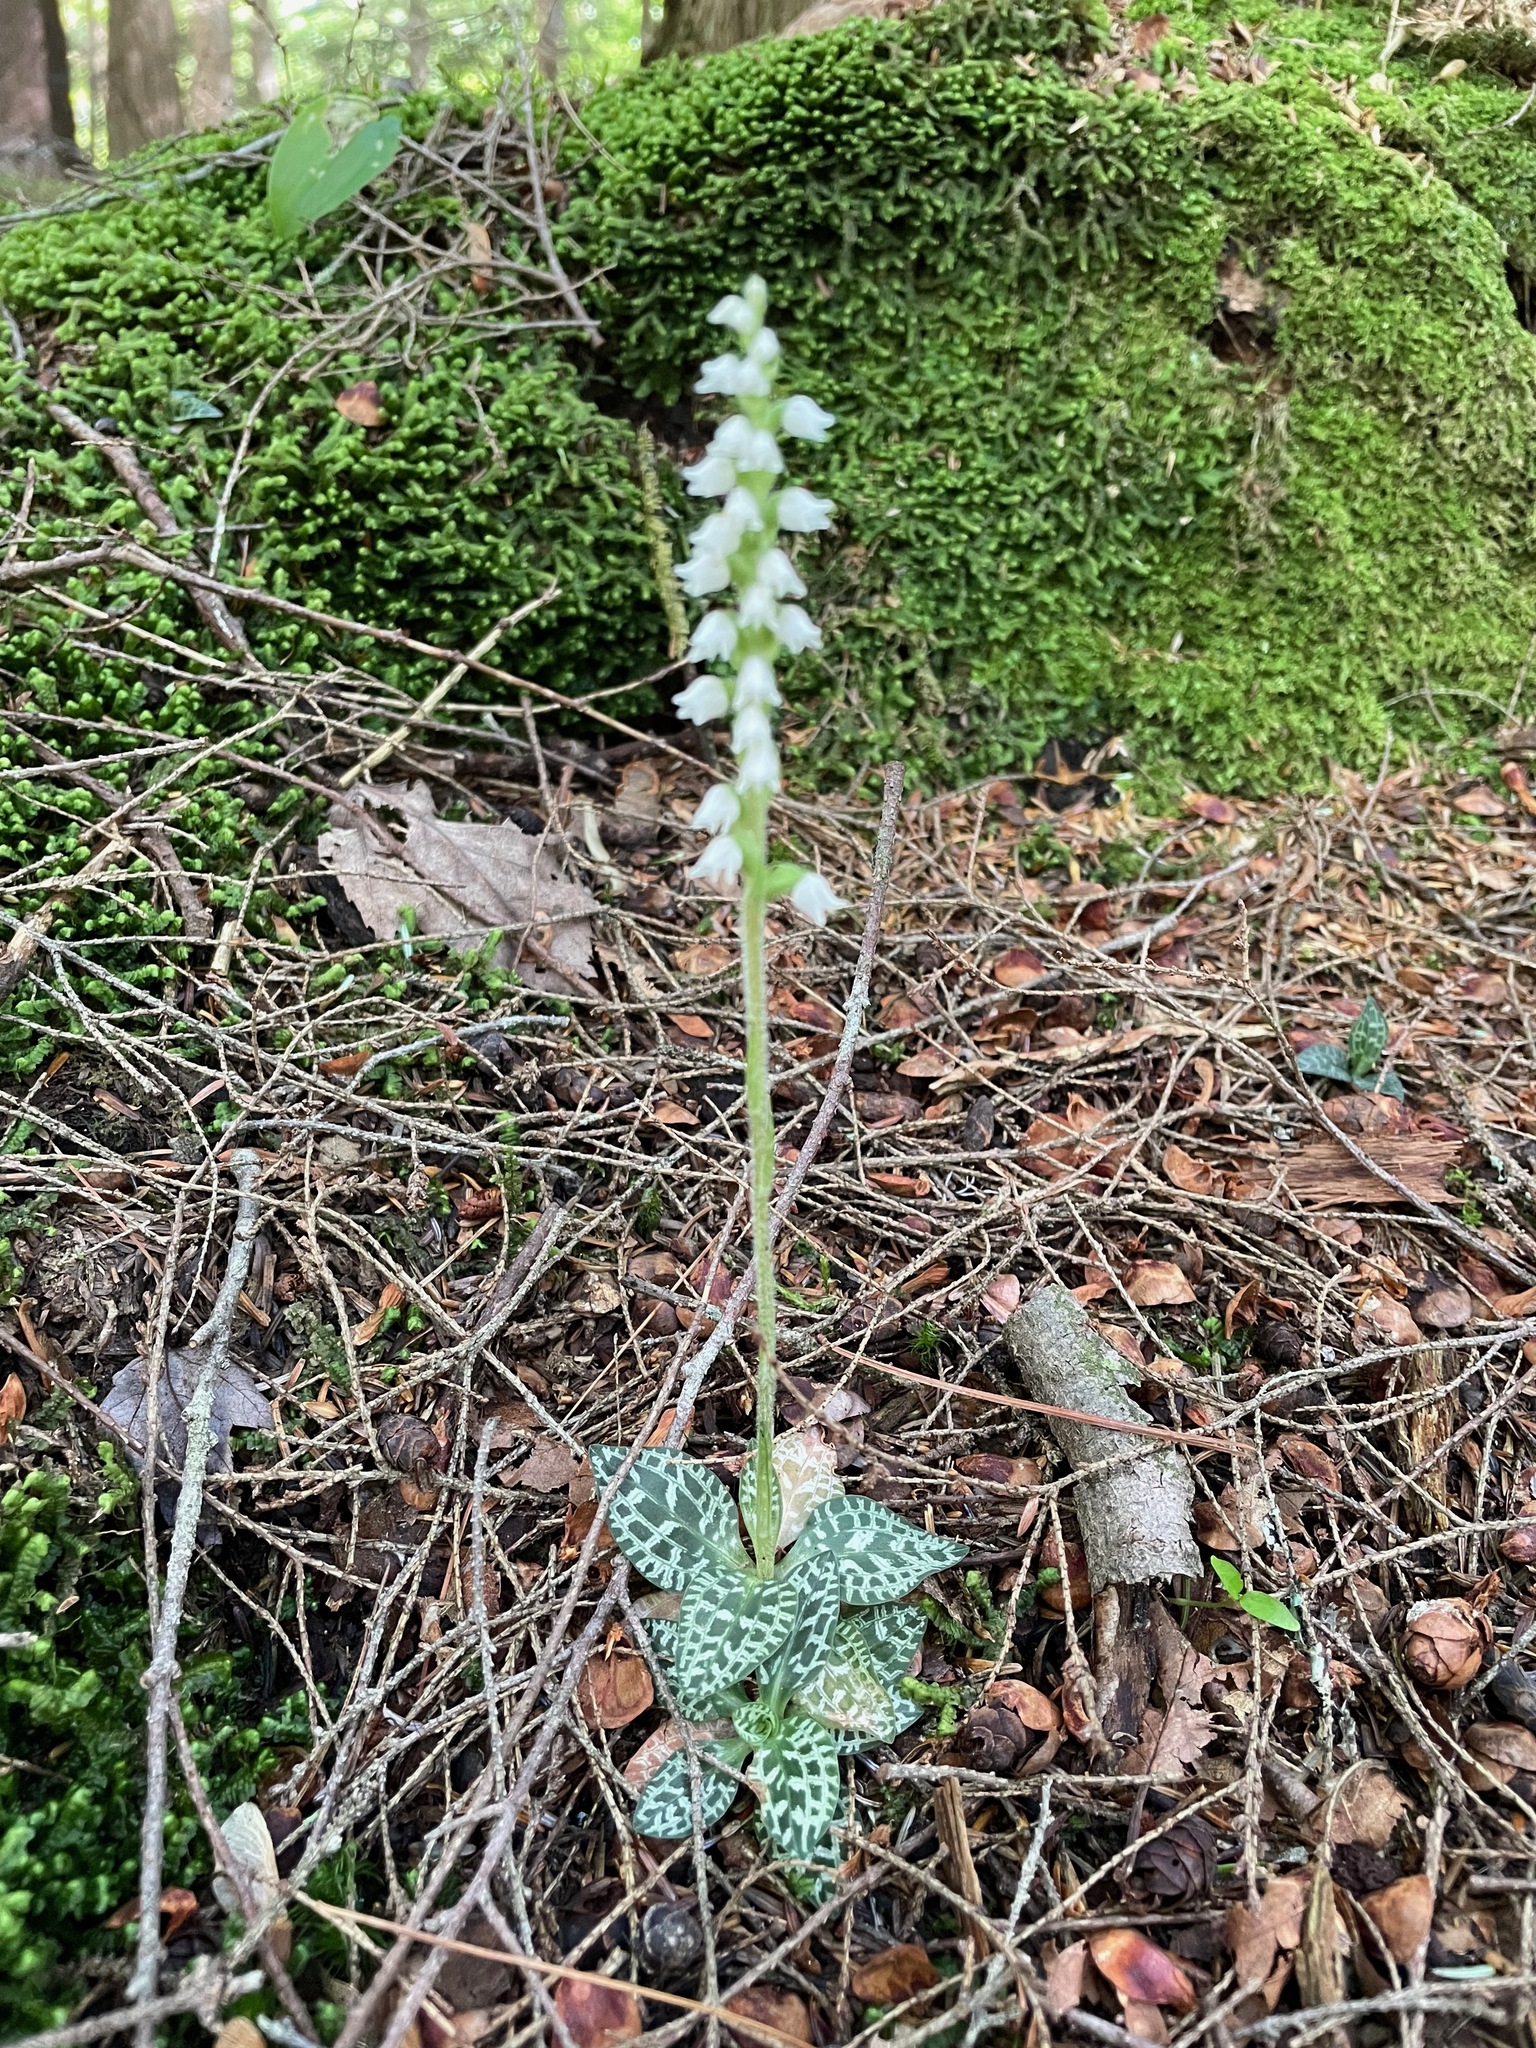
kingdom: Plantae
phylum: Tracheophyta
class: Liliopsida
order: Asparagales
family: Orchidaceae
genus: Goodyera
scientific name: Goodyera repens
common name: Creeping lady's-tresses
